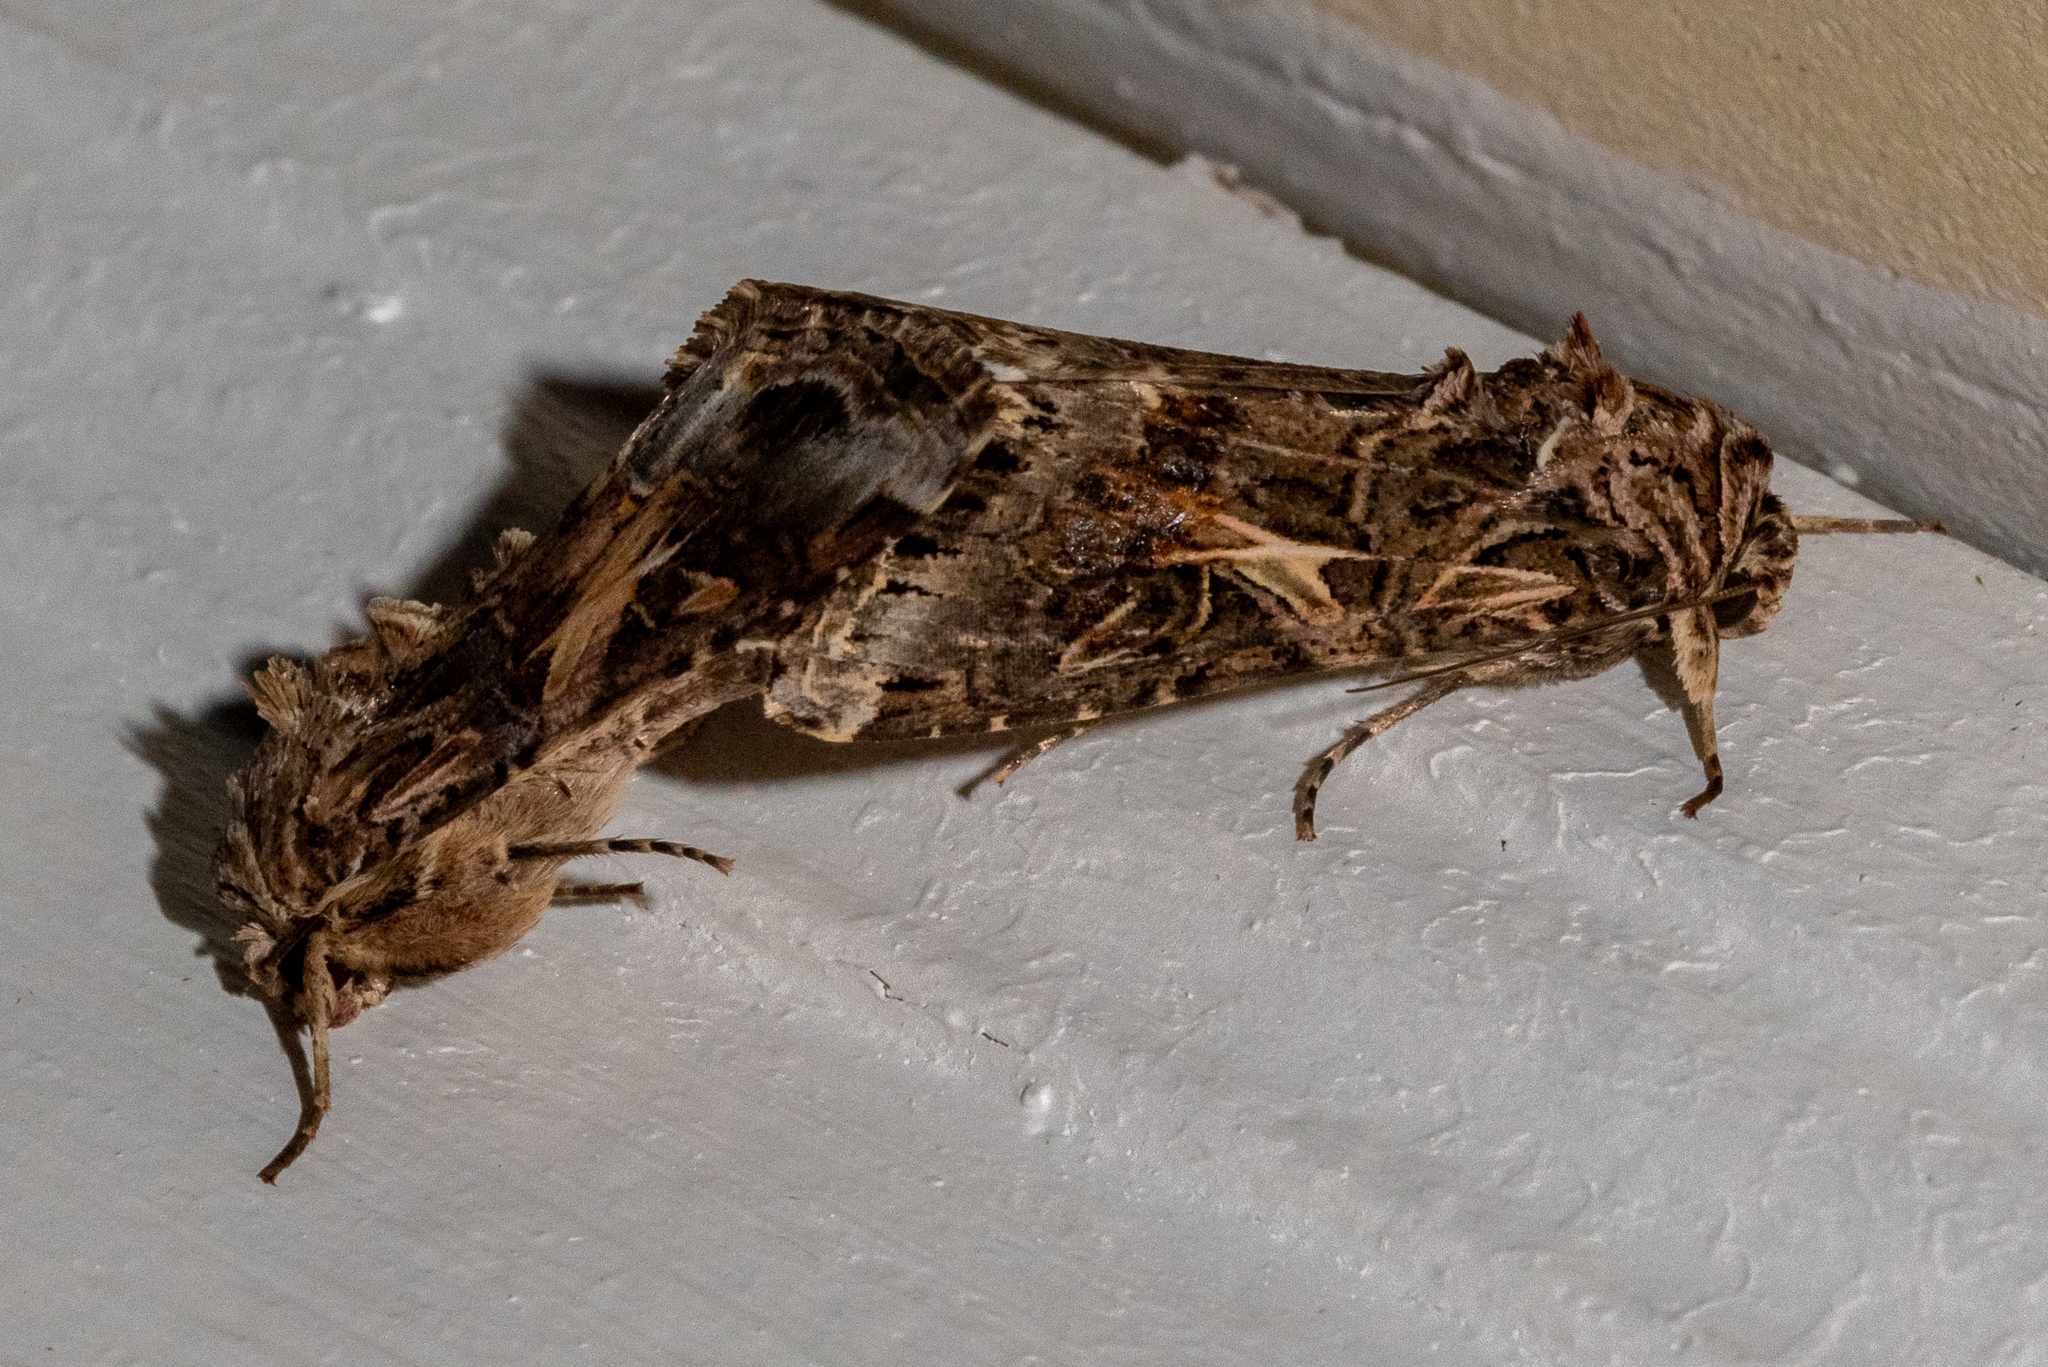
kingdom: Animalia
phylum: Arthropoda
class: Insecta
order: Lepidoptera
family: Noctuidae
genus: Spodoptera
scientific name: Spodoptera ornithogalli
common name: Yellow-striped armyworm
